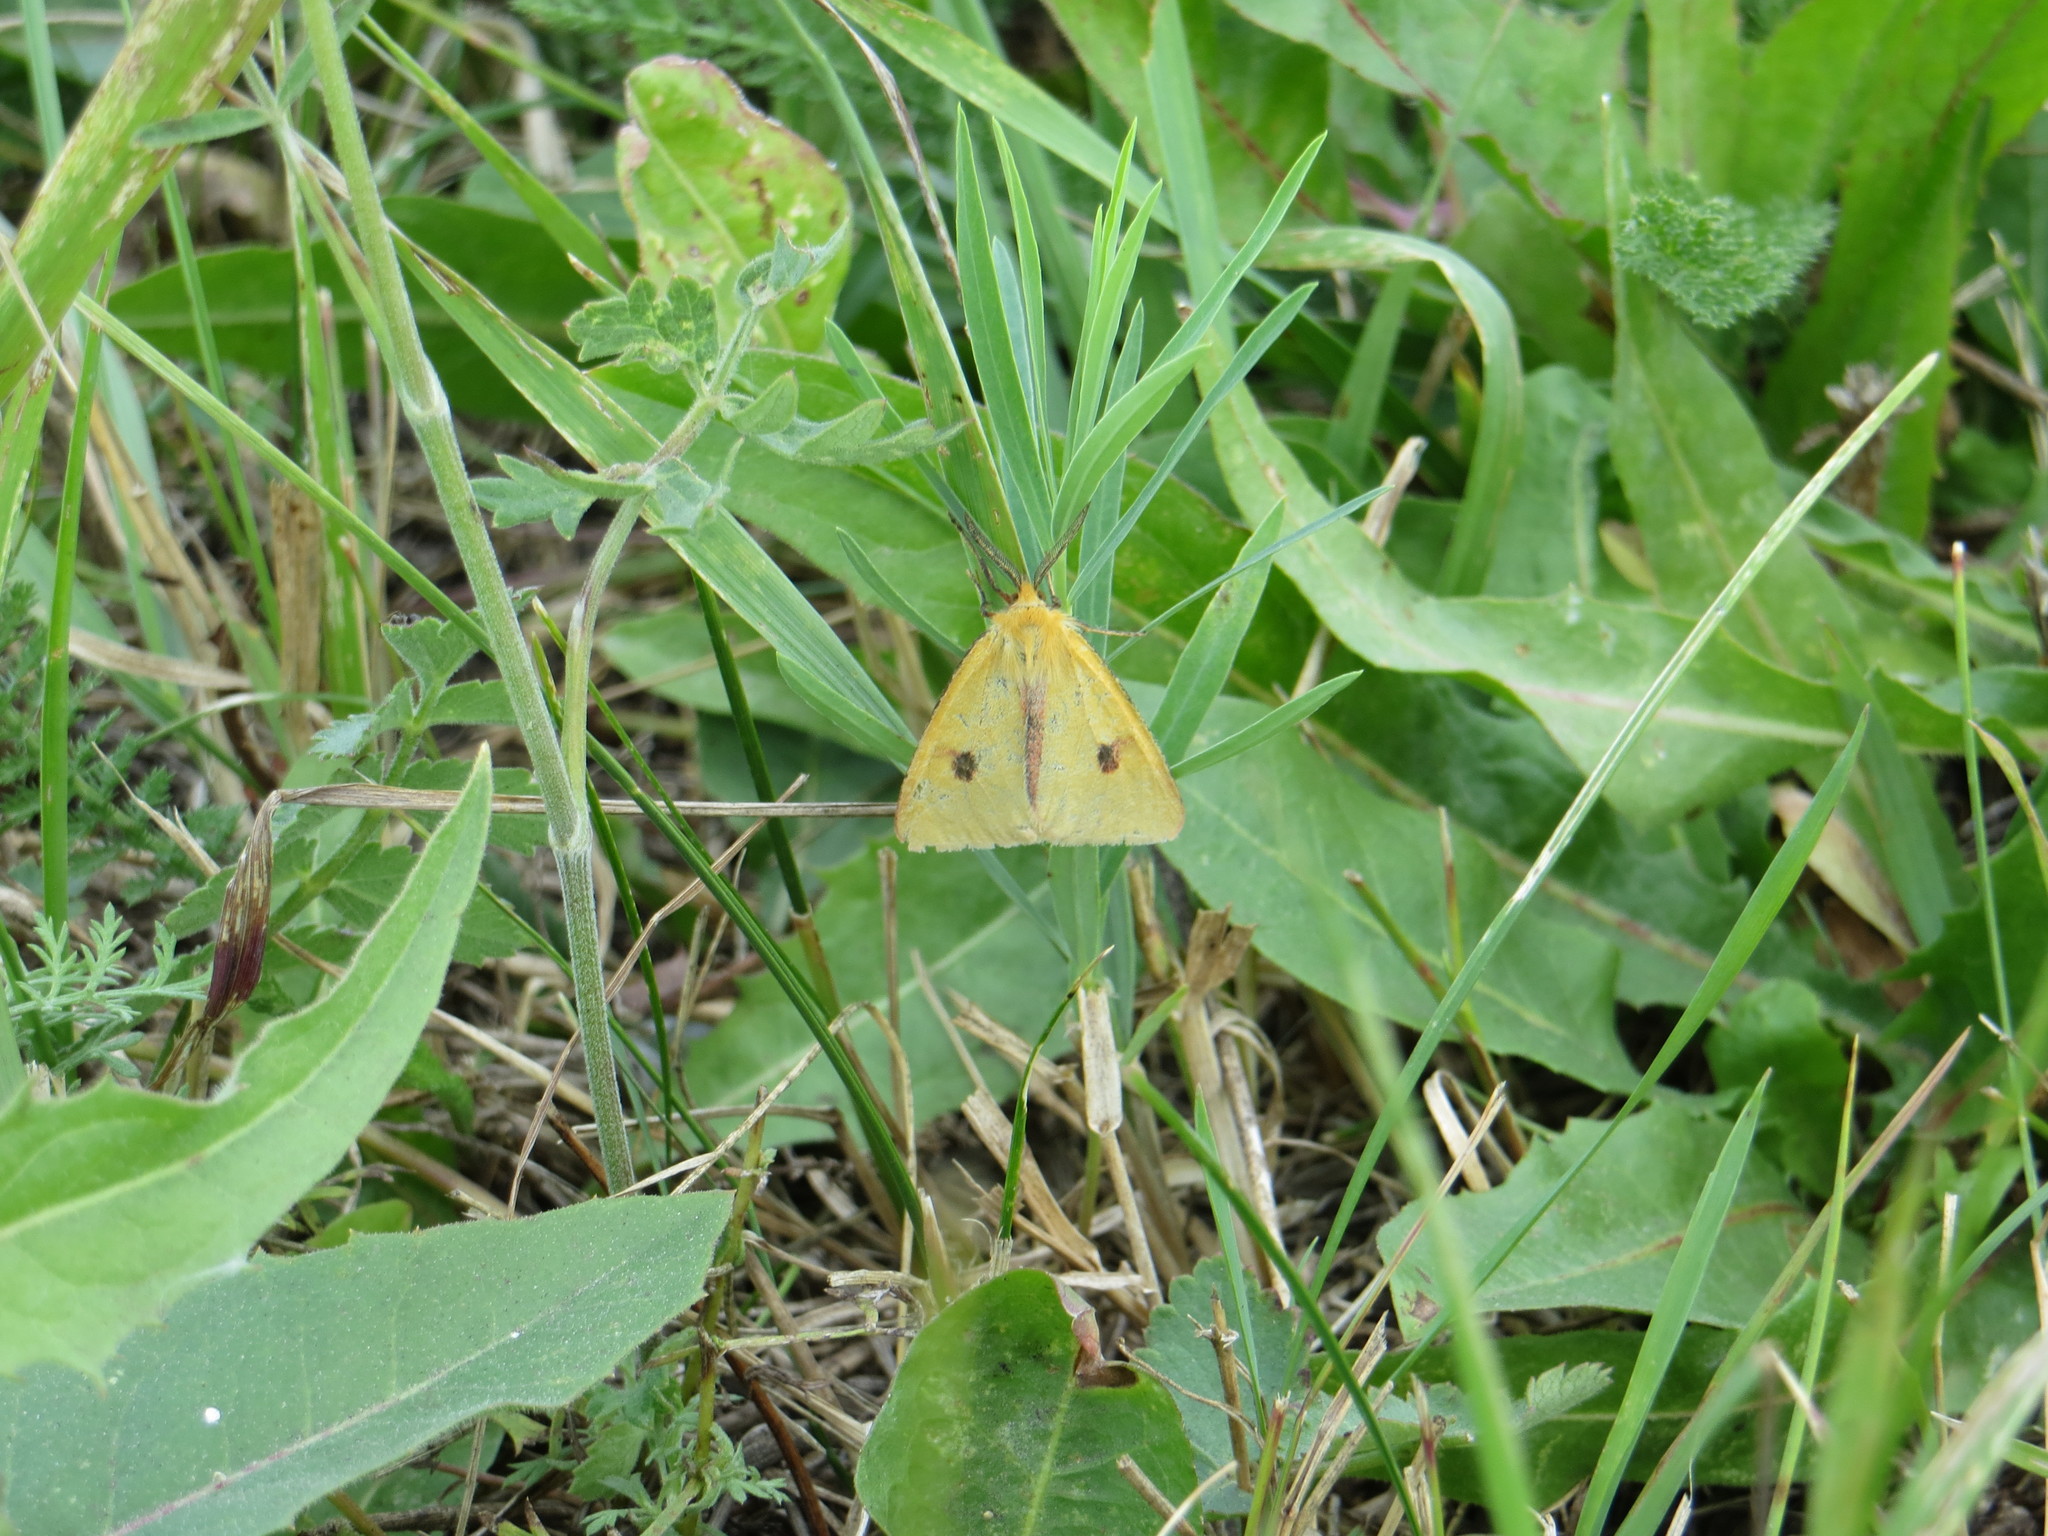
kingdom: Animalia
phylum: Arthropoda
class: Insecta
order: Lepidoptera
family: Erebidae
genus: Diacrisia
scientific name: Diacrisia sannio
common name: Clouded buff
